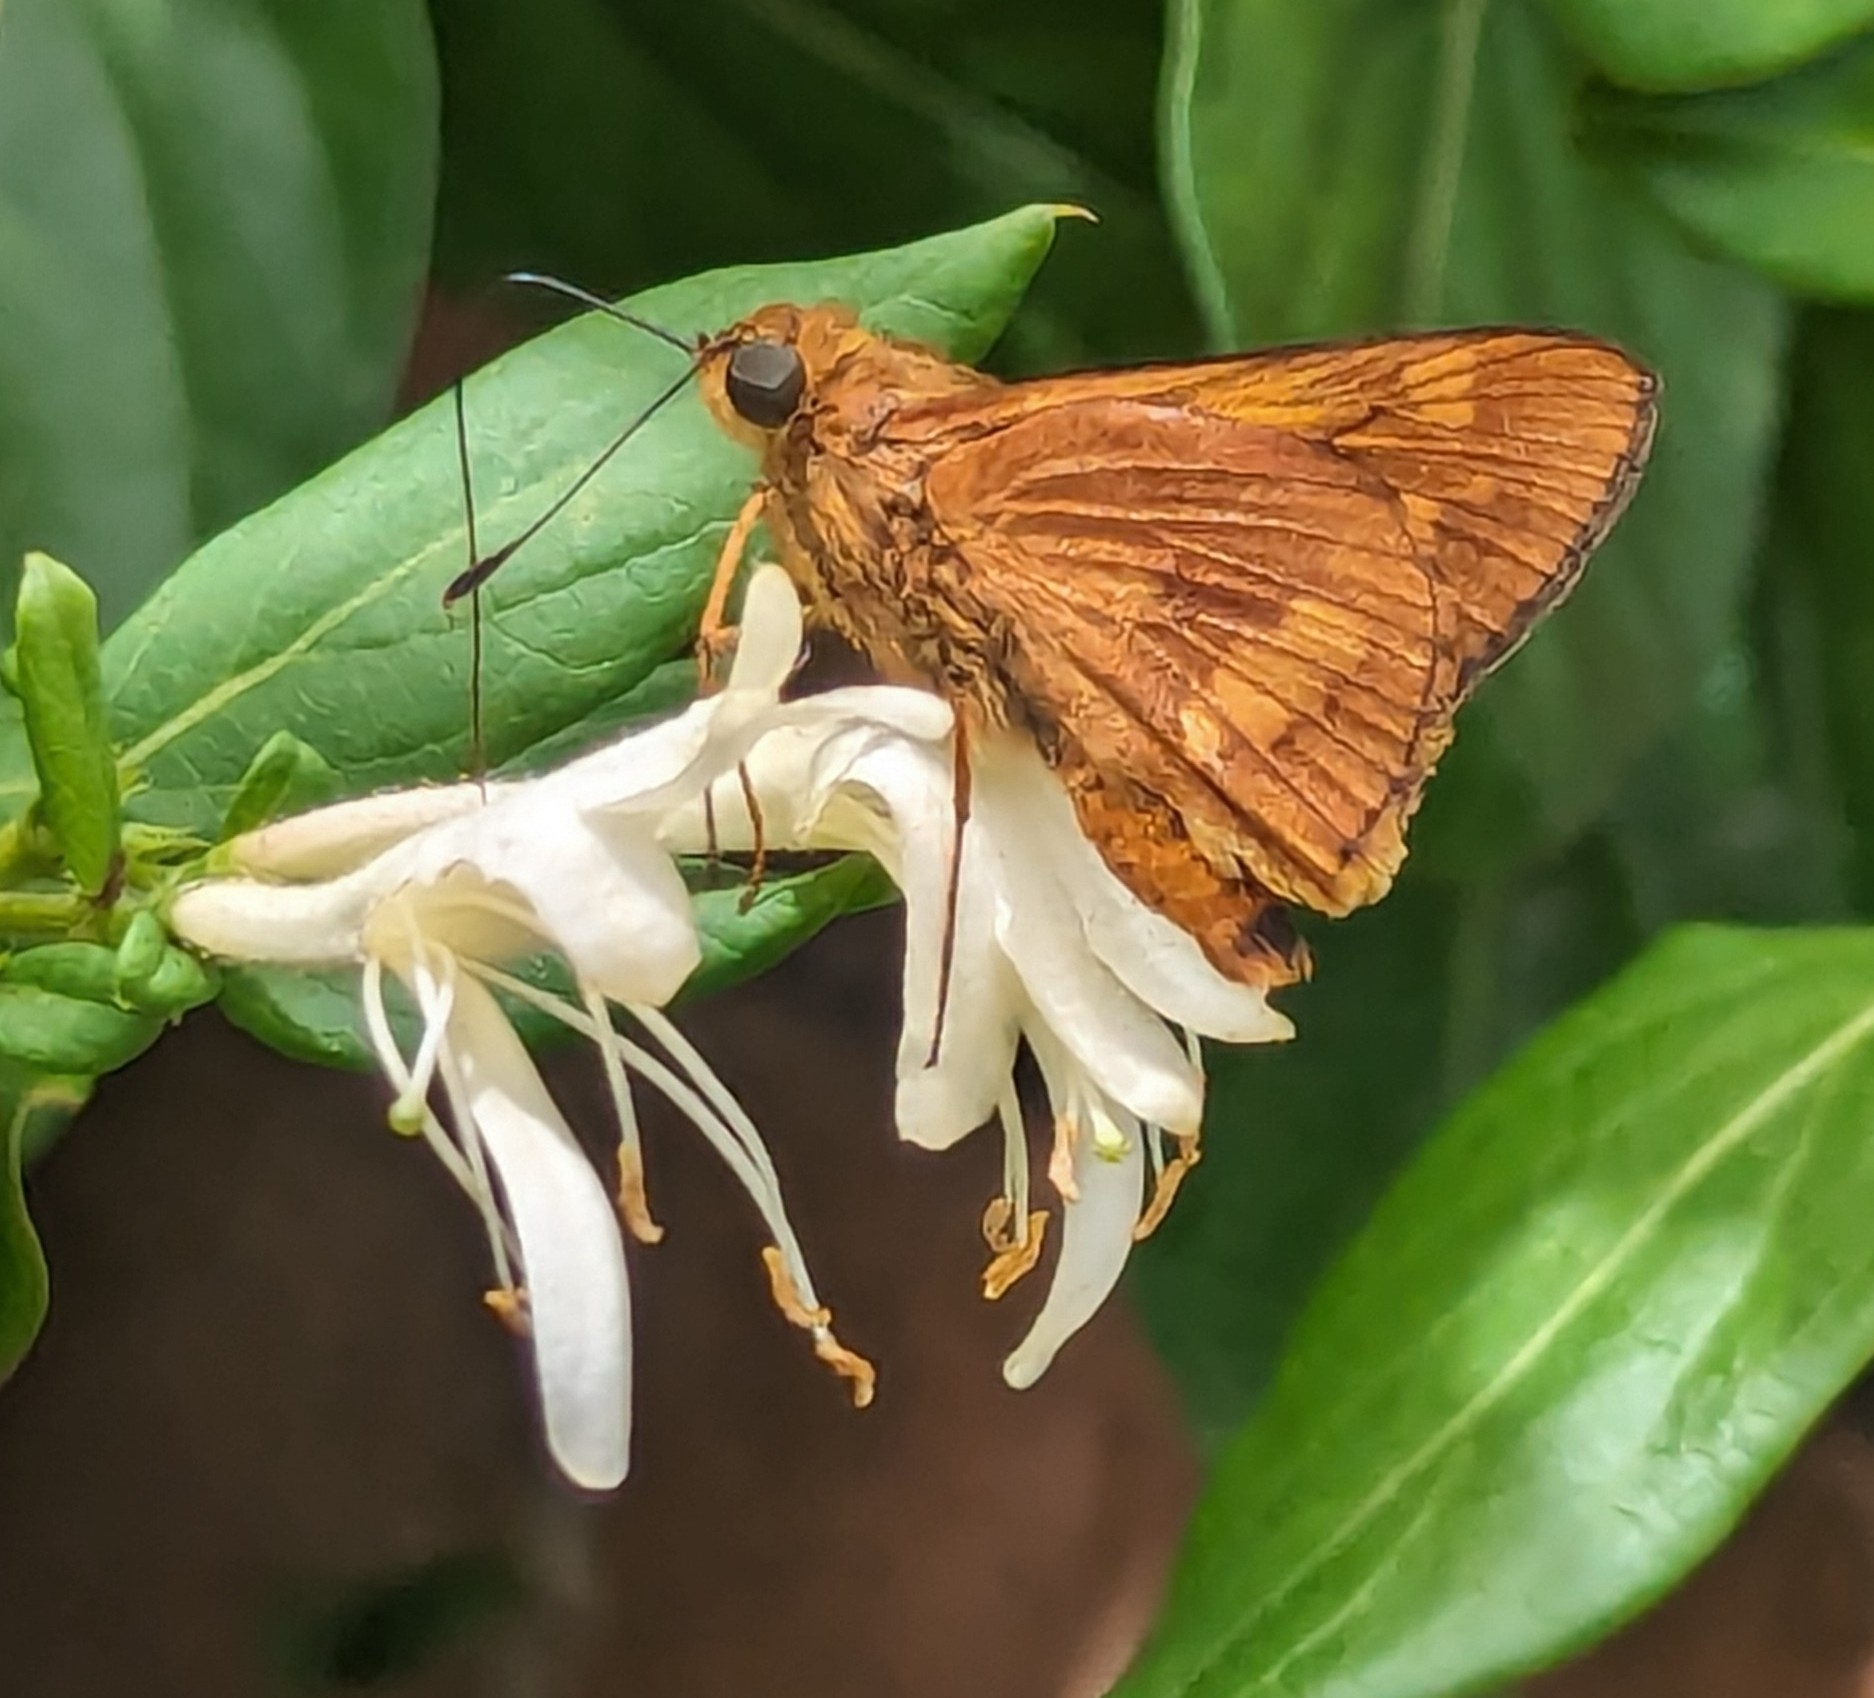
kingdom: Animalia
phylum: Arthropoda
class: Insecta
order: Lepidoptera
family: Hesperiidae
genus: Cephrenes
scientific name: Cephrenes augiades
